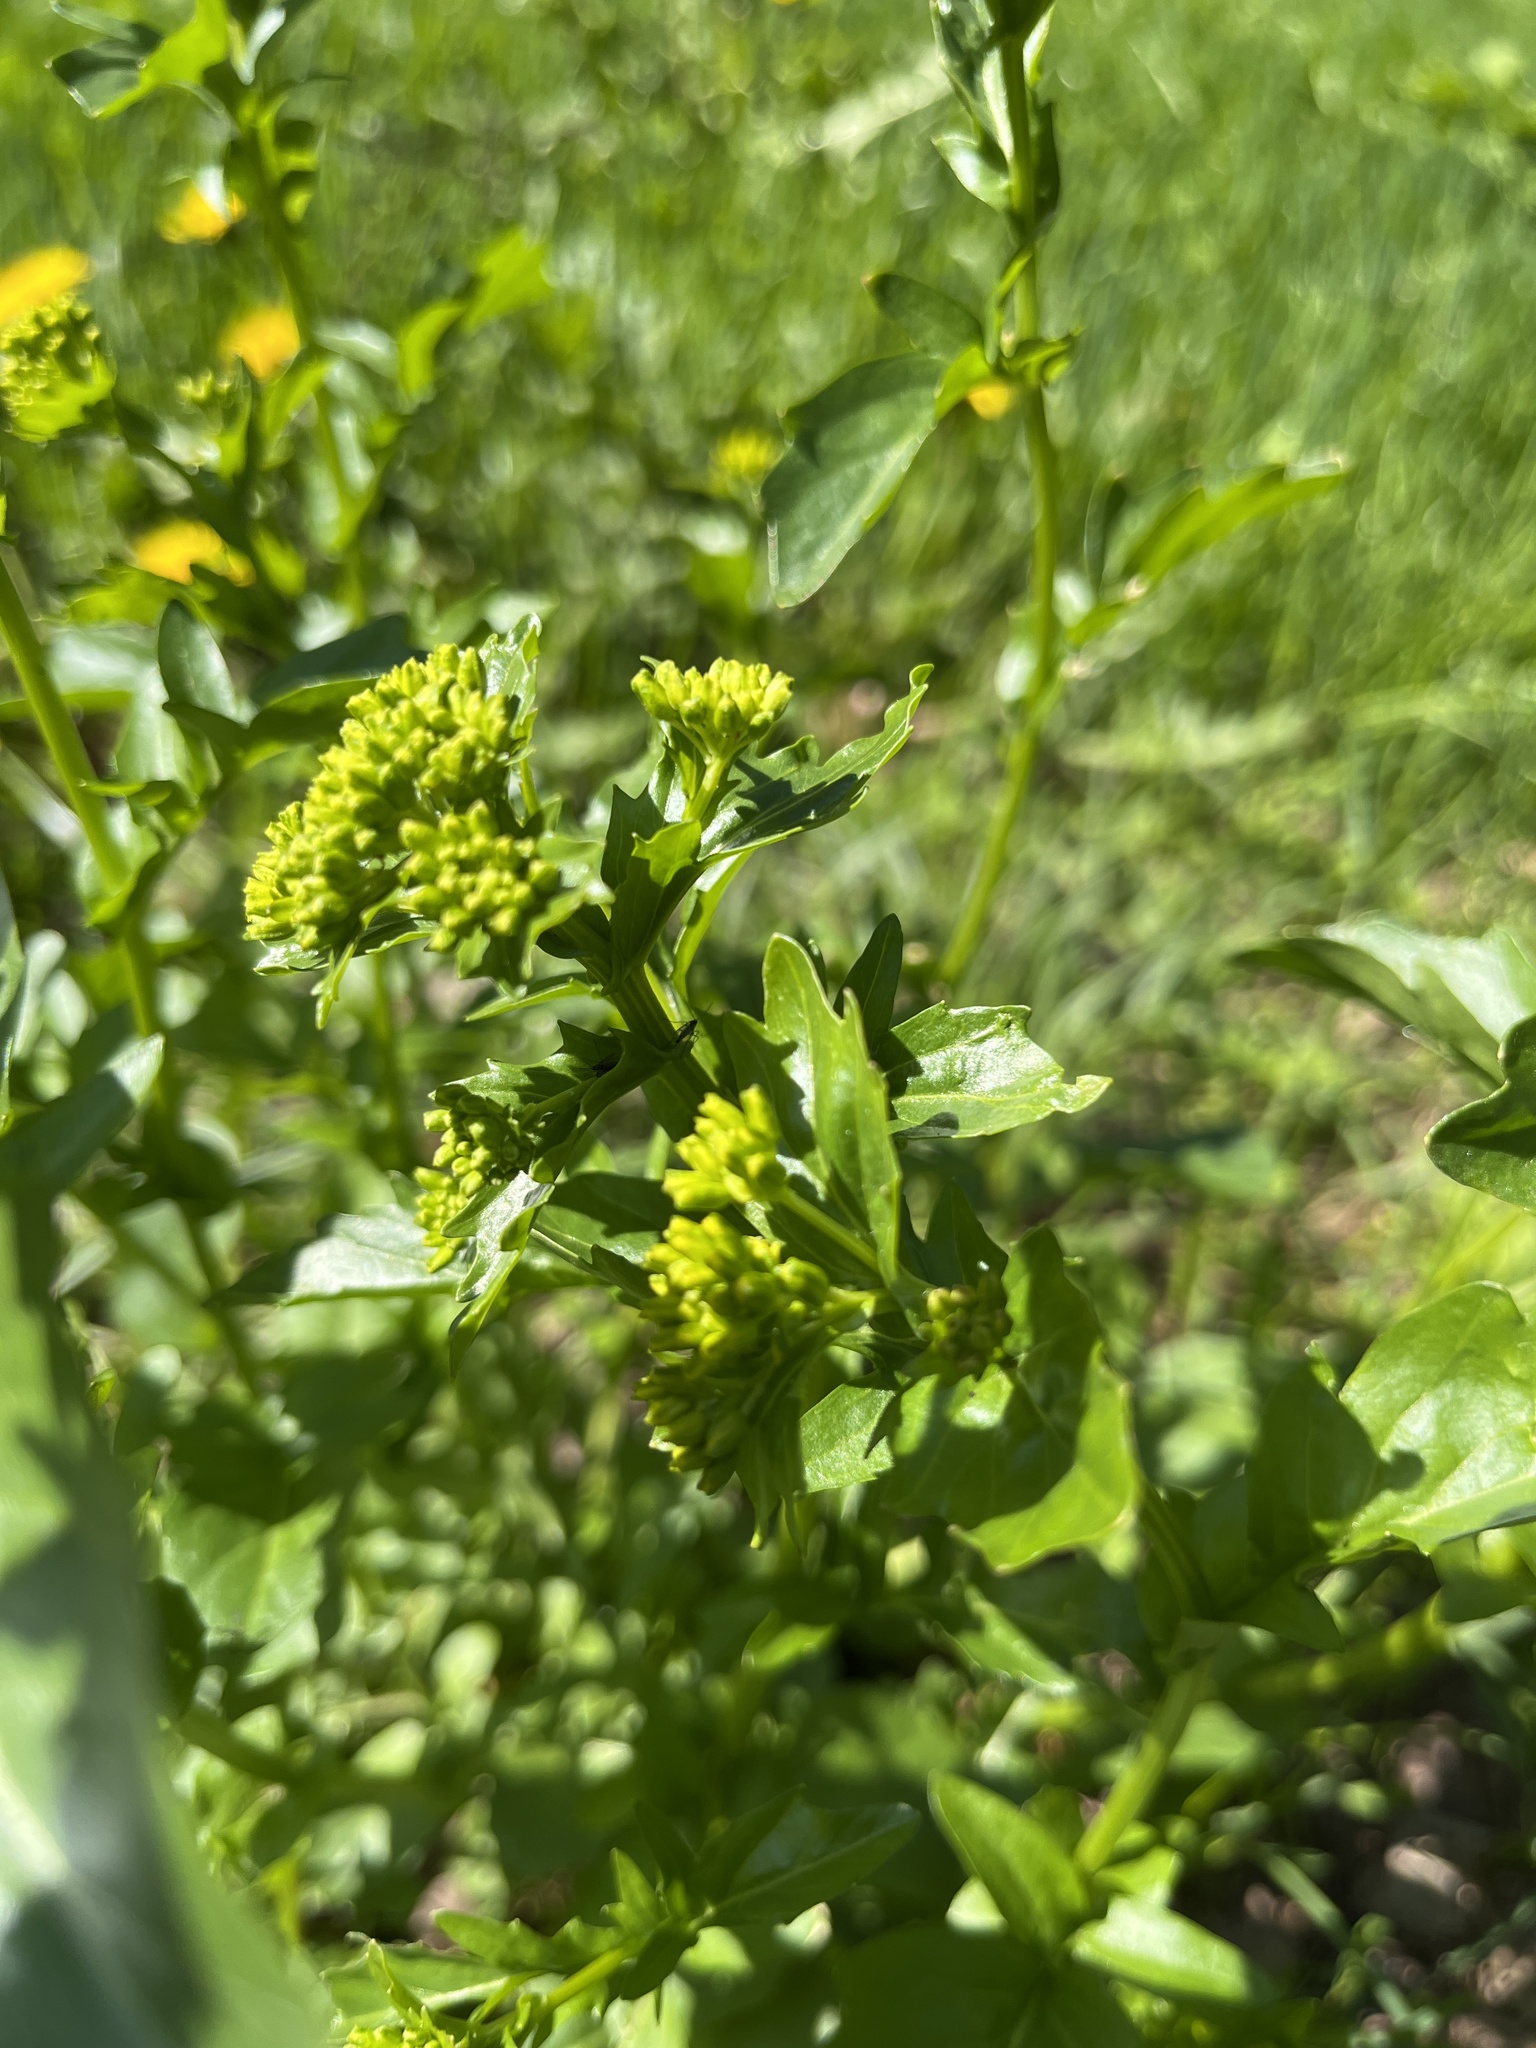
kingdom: Plantae
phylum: Tracheophyta
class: Magnoliopsida
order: Brassicales
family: Brassicaceae
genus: Barbarea
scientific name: Barbarea vulgaris
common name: Cressy-greens
